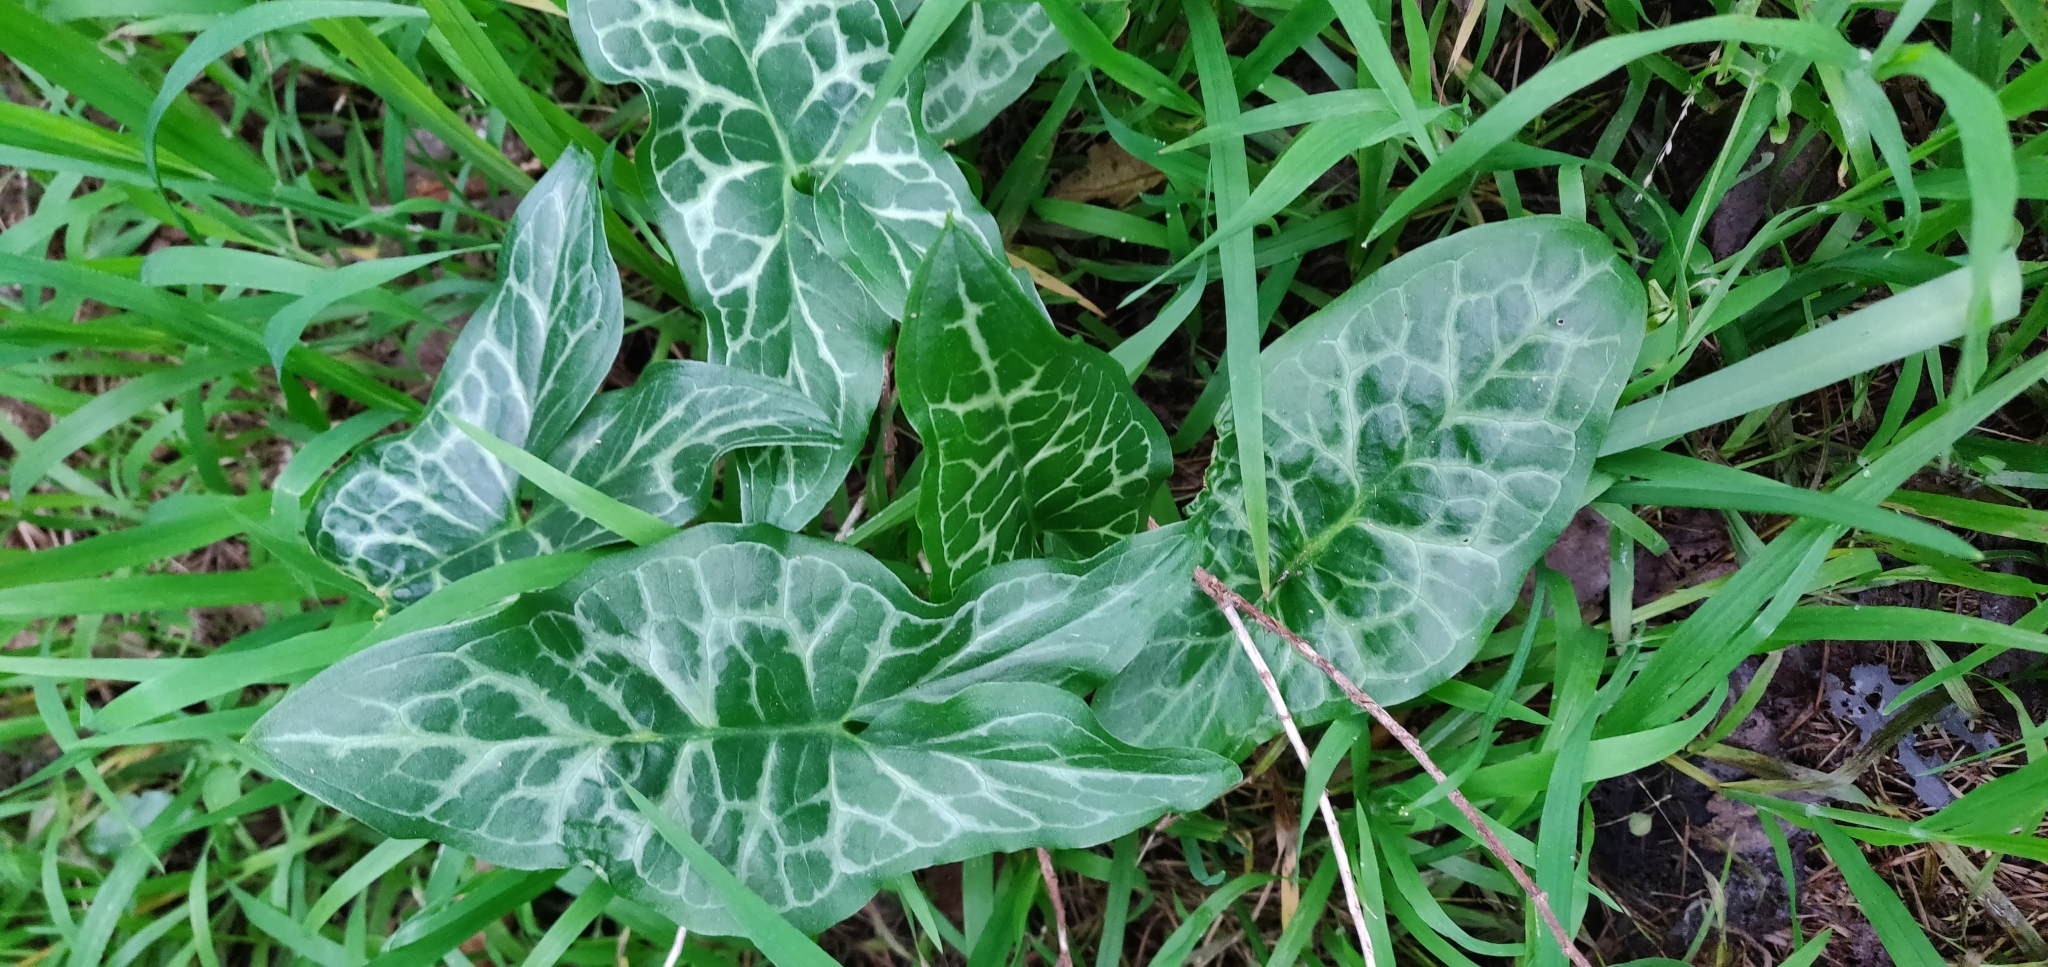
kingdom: Plantae
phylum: Tracheophyta
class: Liliopsida
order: Alismatales
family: Araceae
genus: Arum
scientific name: Arum italicum
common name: Italian lords-and-ladies
